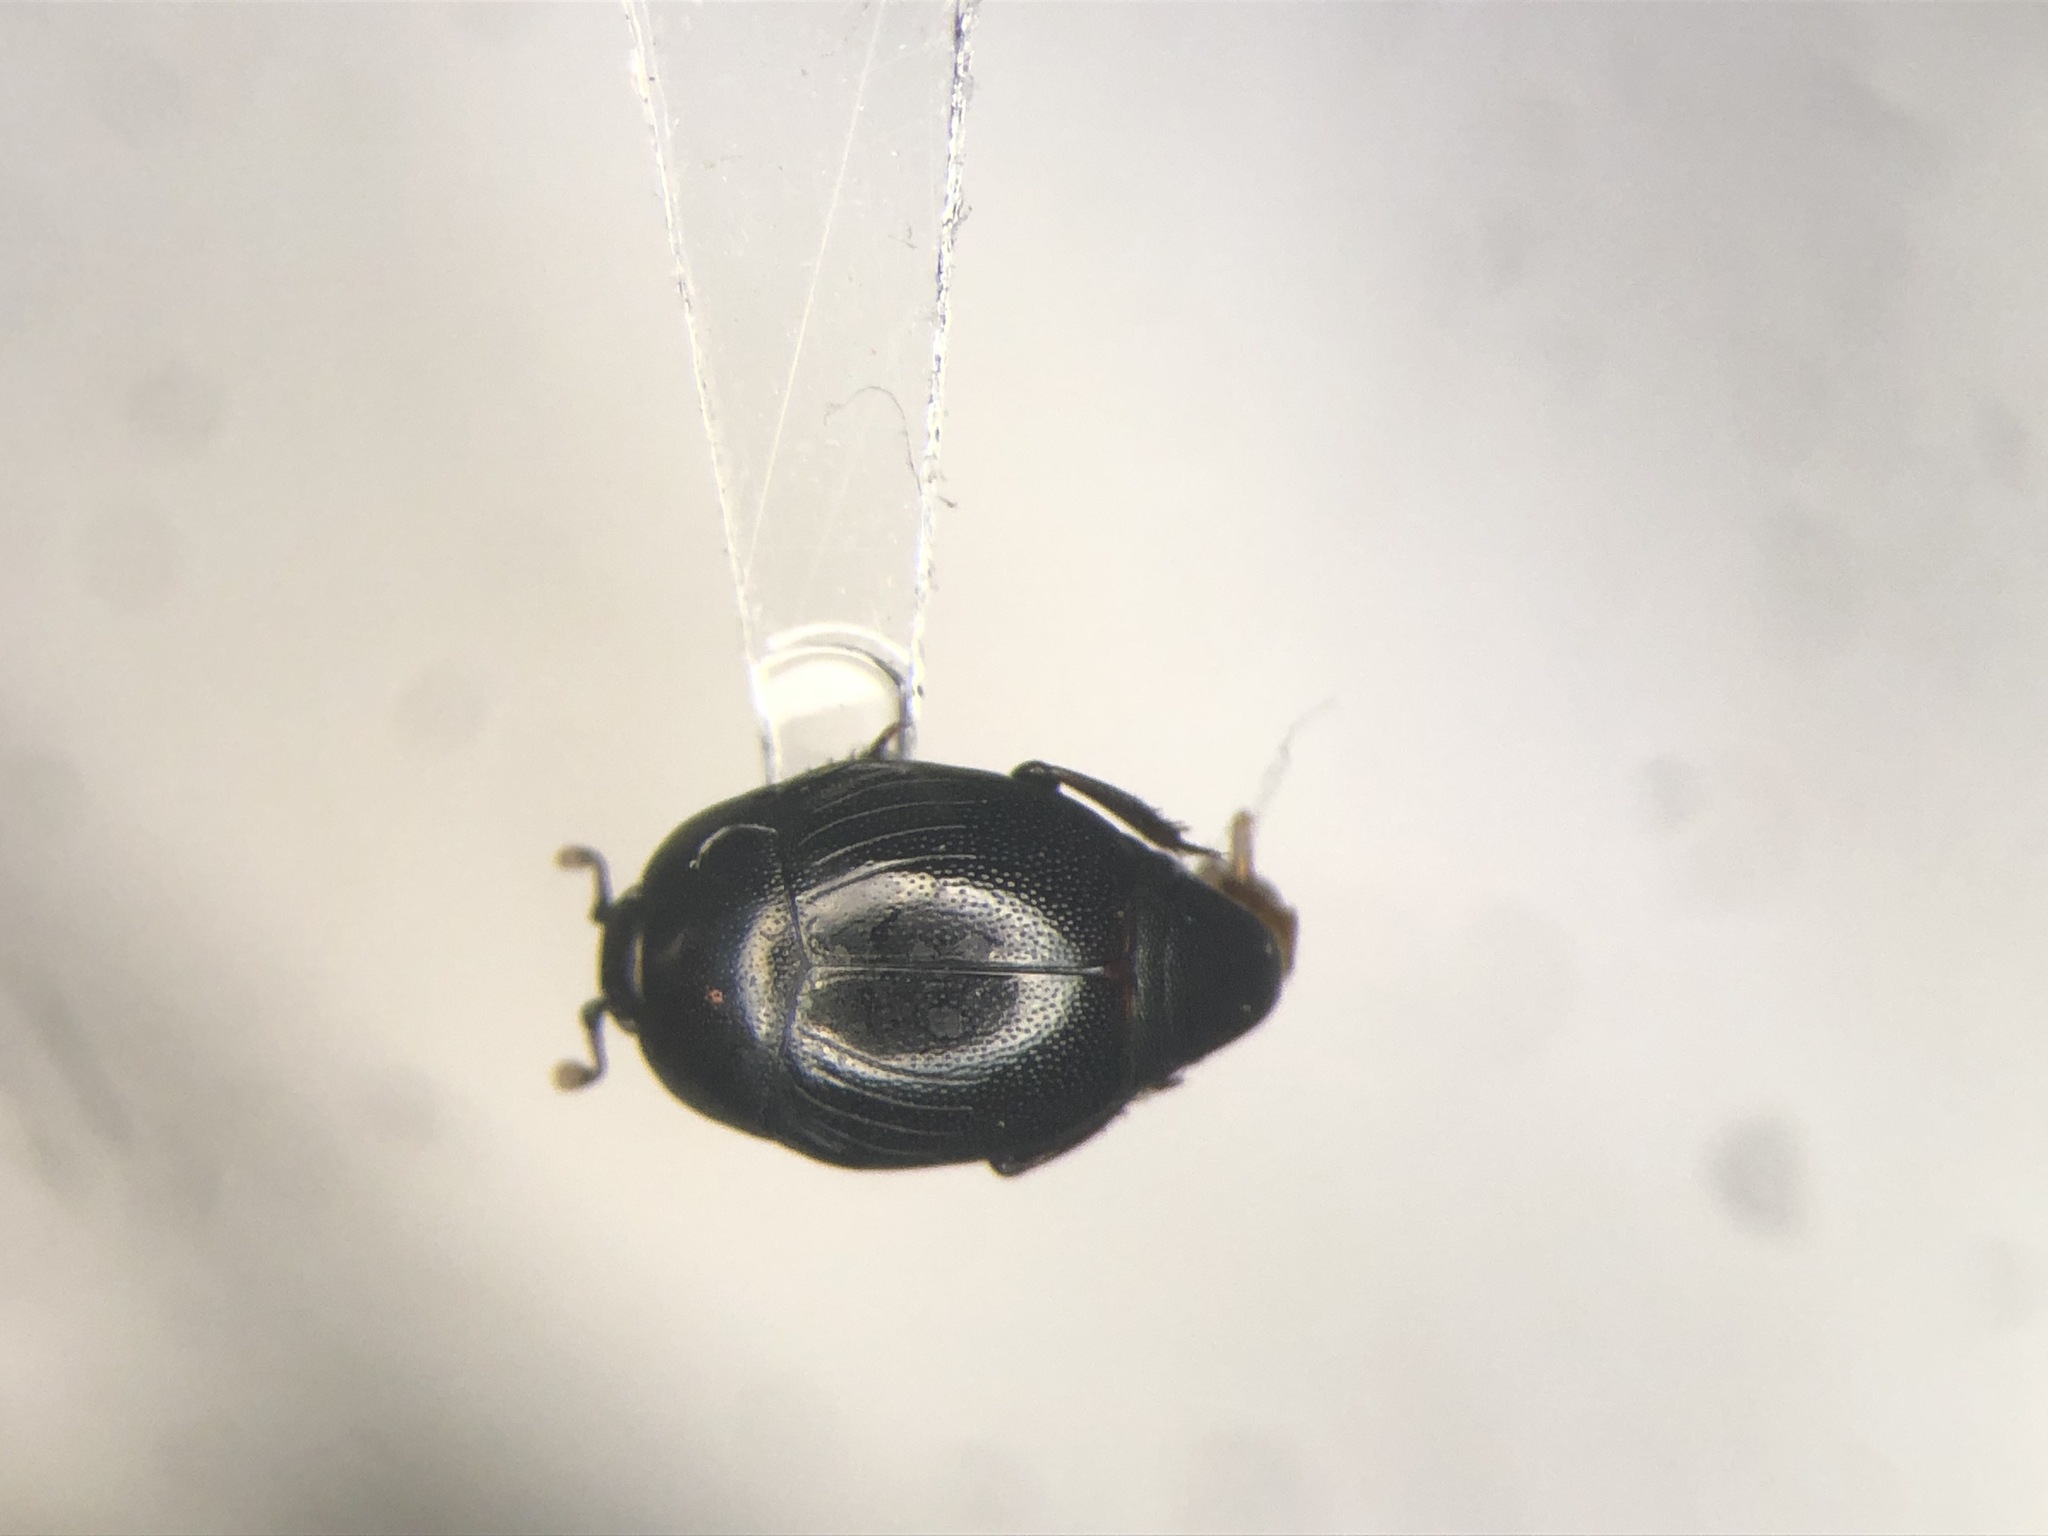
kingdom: Animalia
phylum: Arthropoda
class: Insecta
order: Coleoptera
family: Histeridae
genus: Gnathoncus
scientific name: Gnathoncus rotundatus
